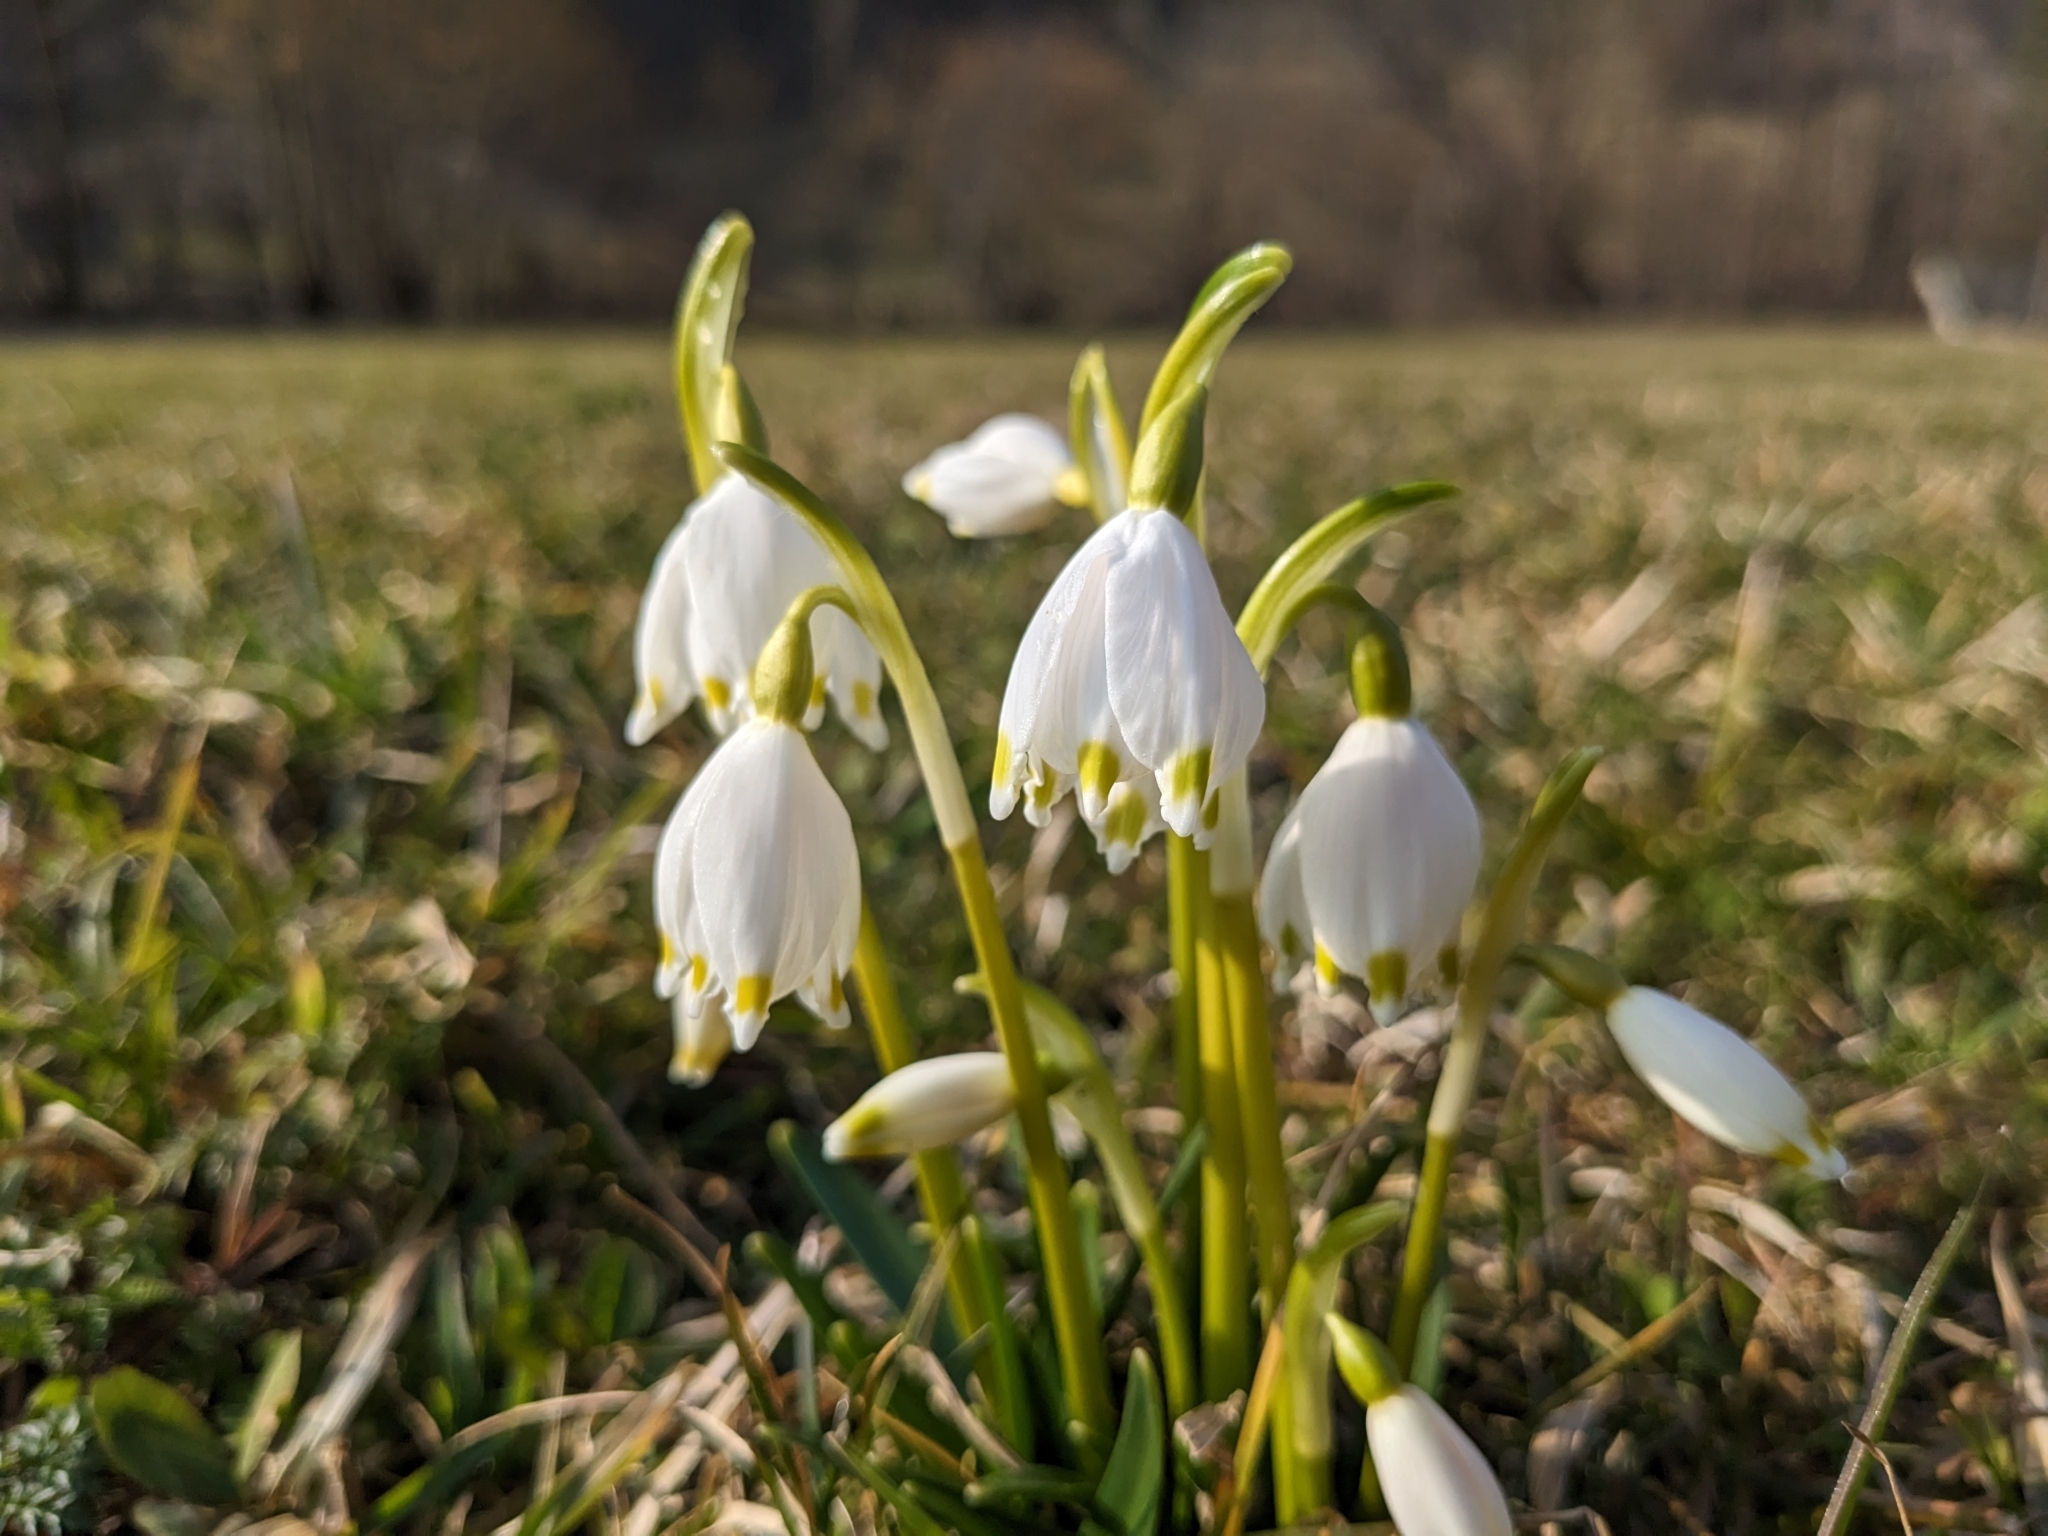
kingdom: Plantae
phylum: Tracheophyta
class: Liliopsida
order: Asparagales
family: Amaryllidaceae
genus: Leucojum
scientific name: Leucojum vernum
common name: Spring snowflake
